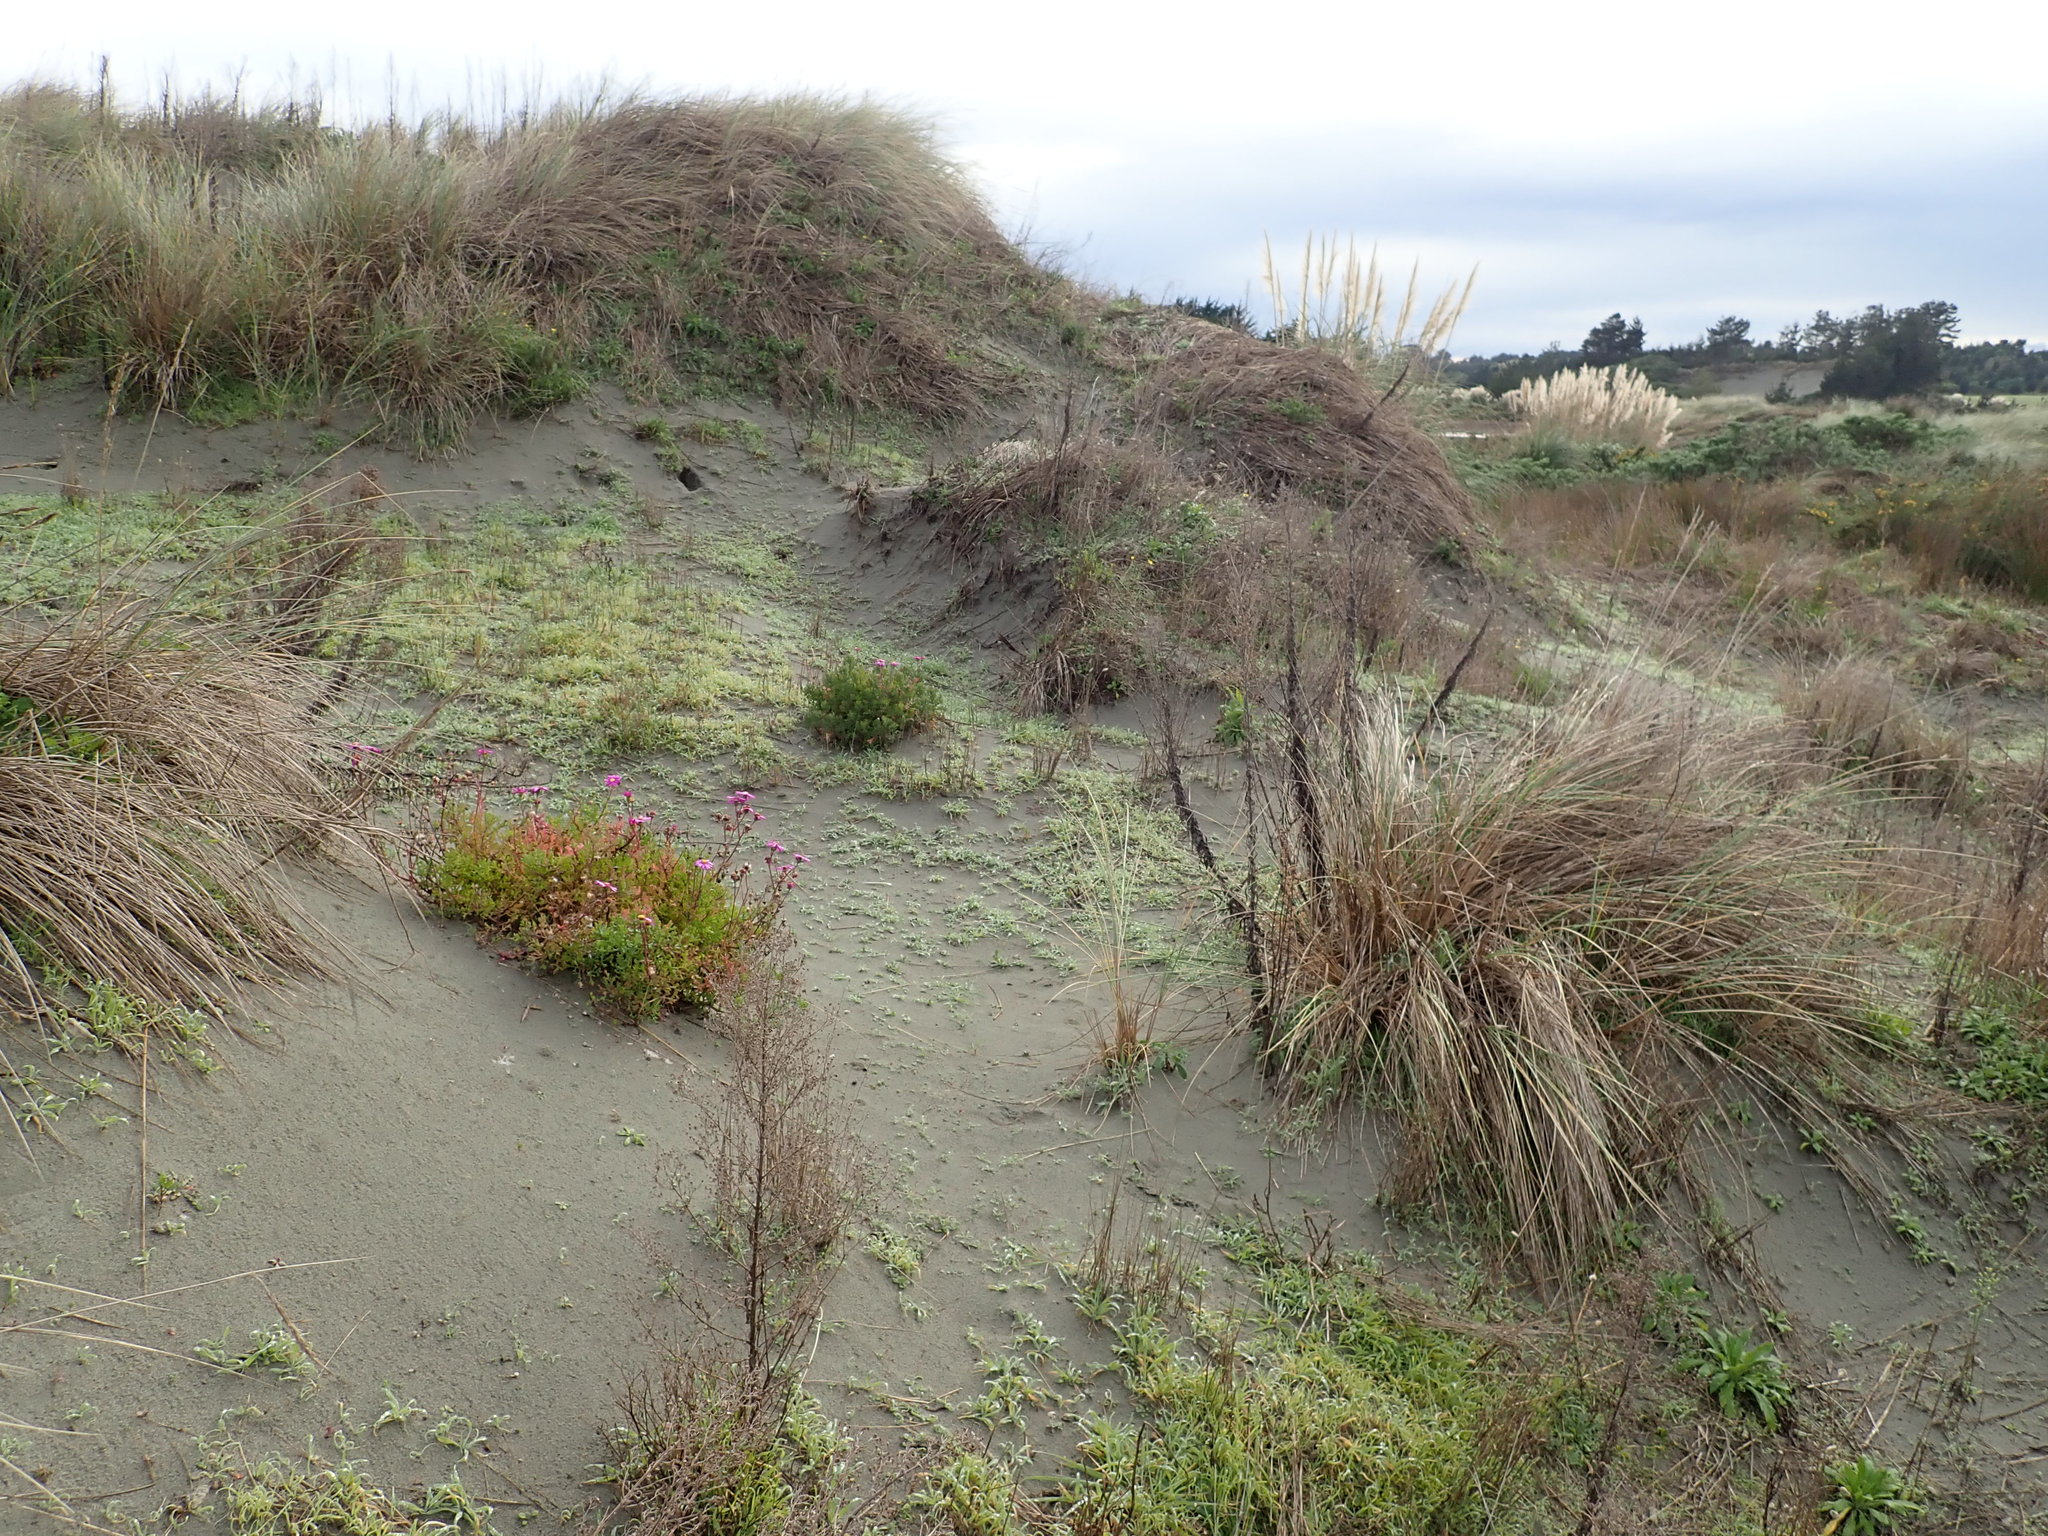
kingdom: Plantae
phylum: Tracheophyta
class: Magnoliopsida
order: Asterales
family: Asteraceae
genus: Senecio
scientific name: Senecio elegans
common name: Purple groundsel
